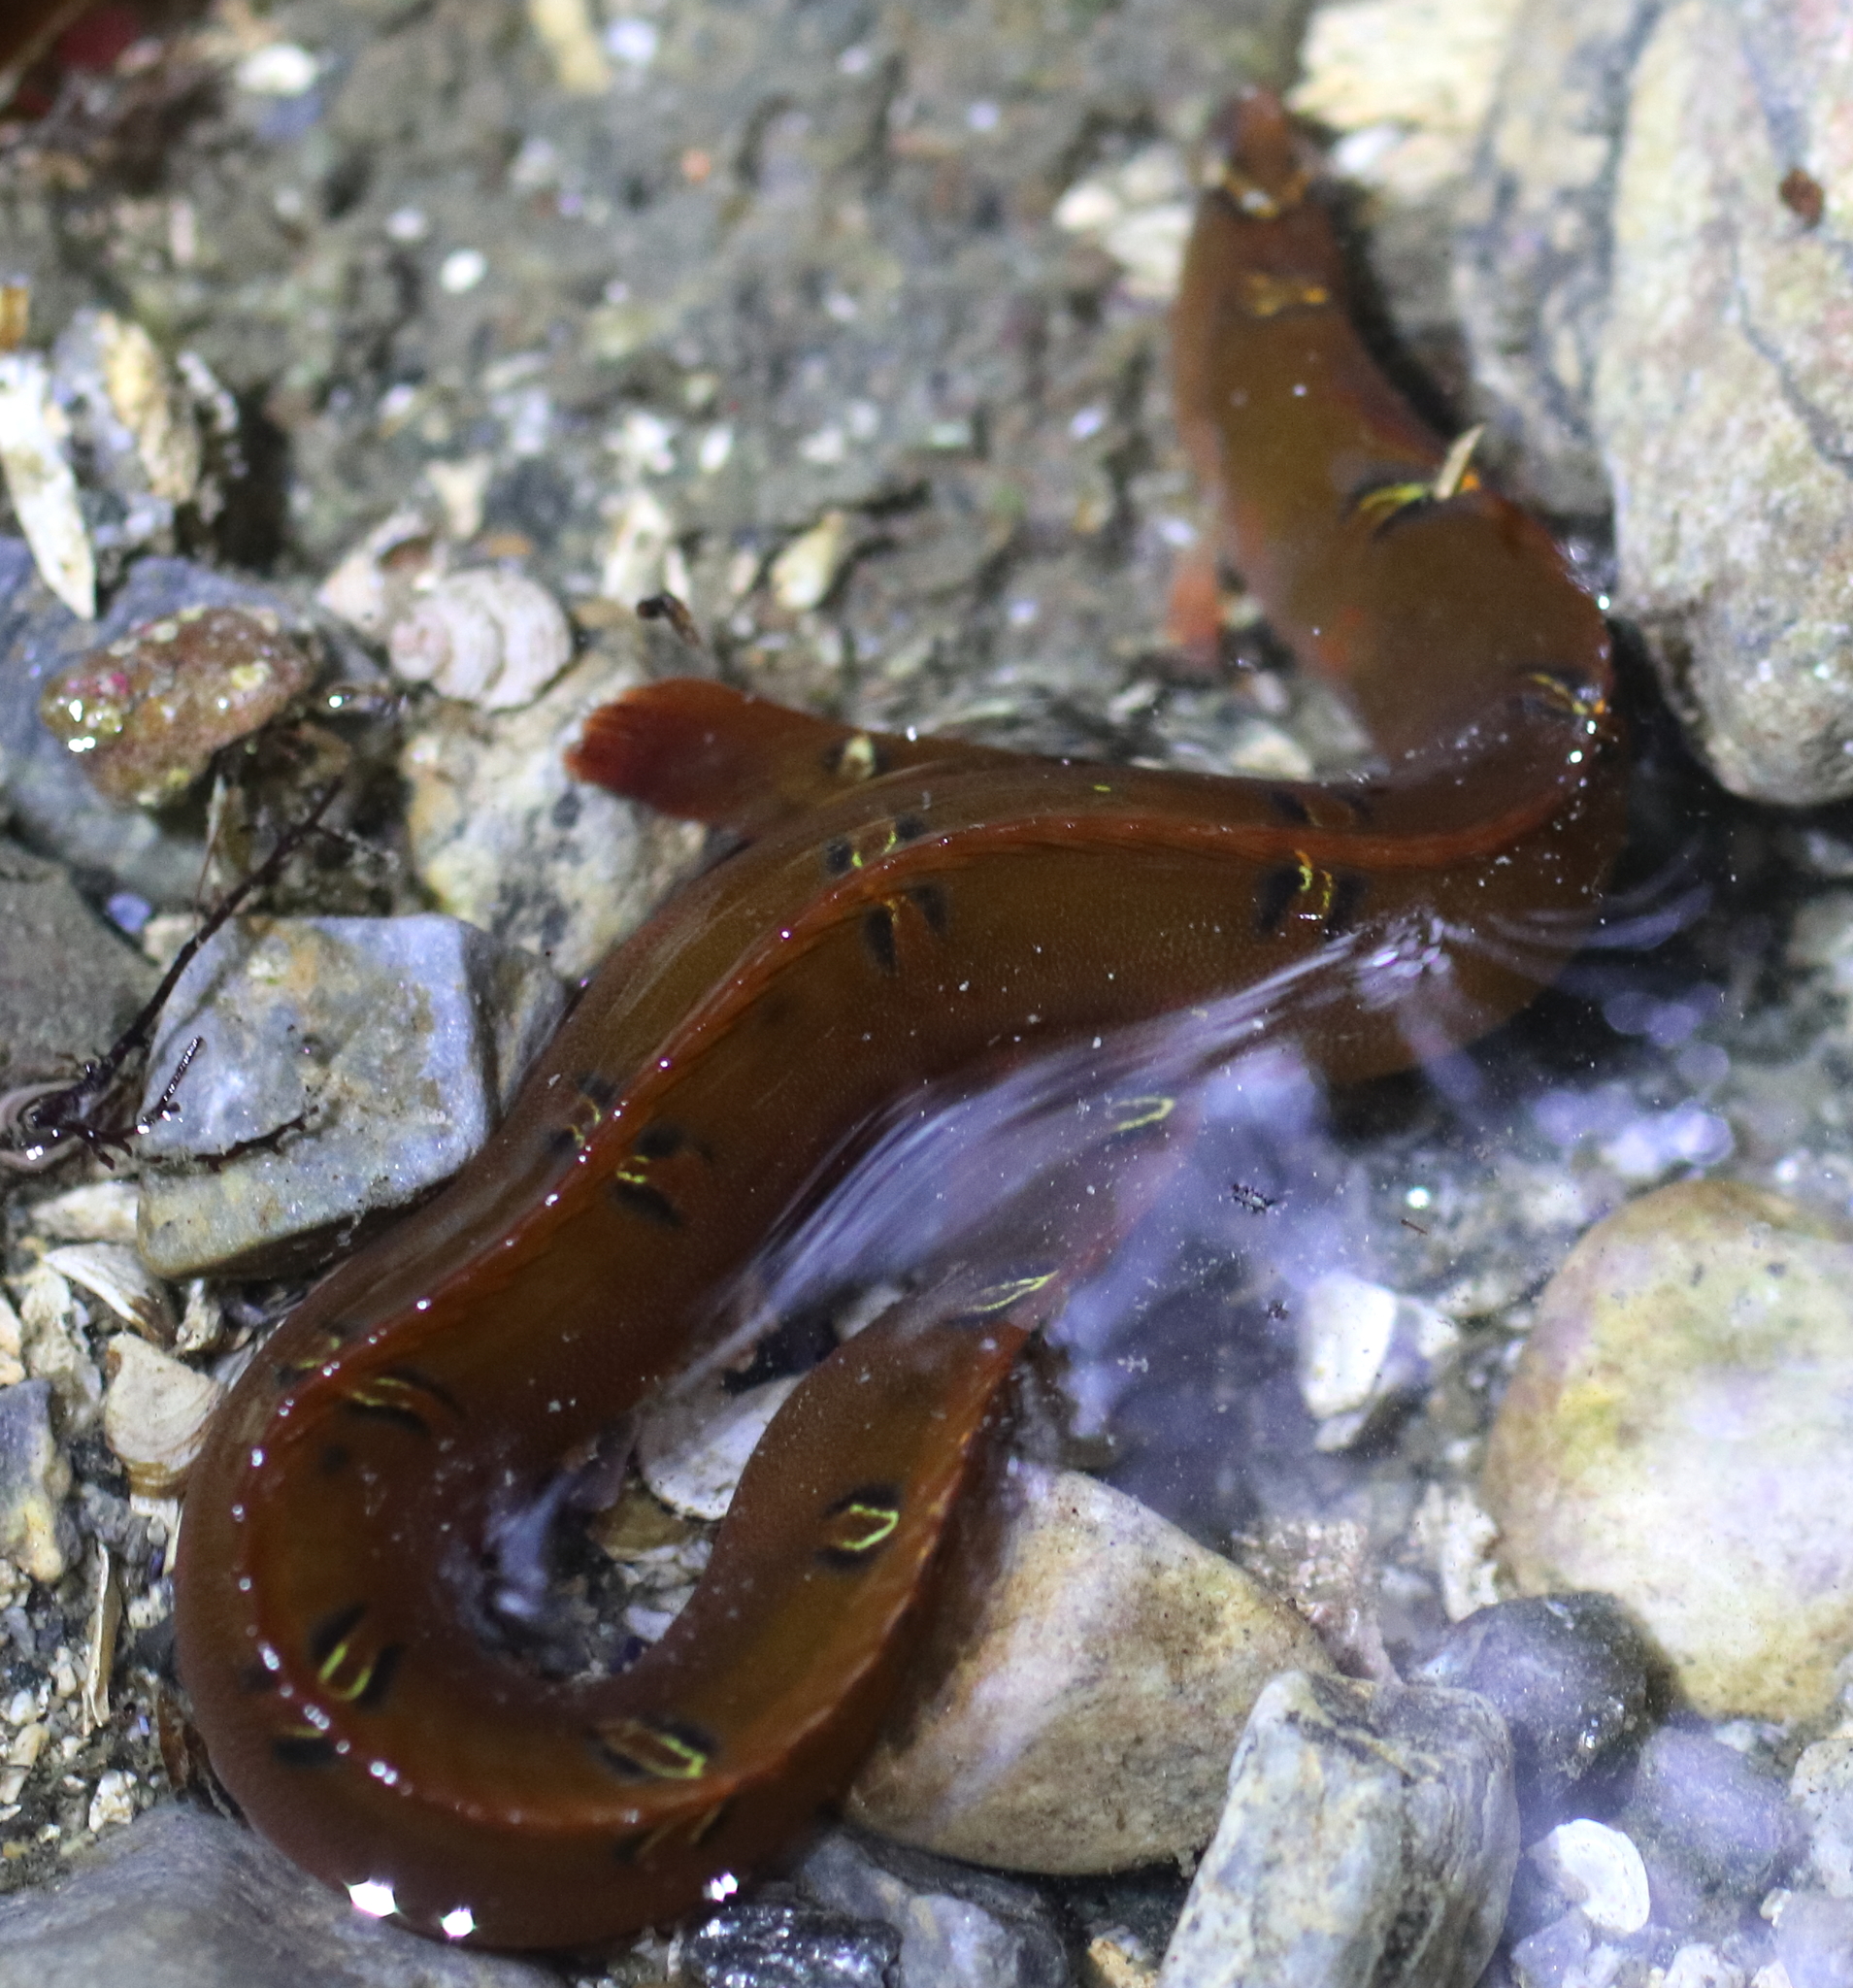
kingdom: Animalia
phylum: Chordata
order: Perciformes
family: Pholidae
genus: Pholis
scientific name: Pholis laeta
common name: Crescent gunnel
